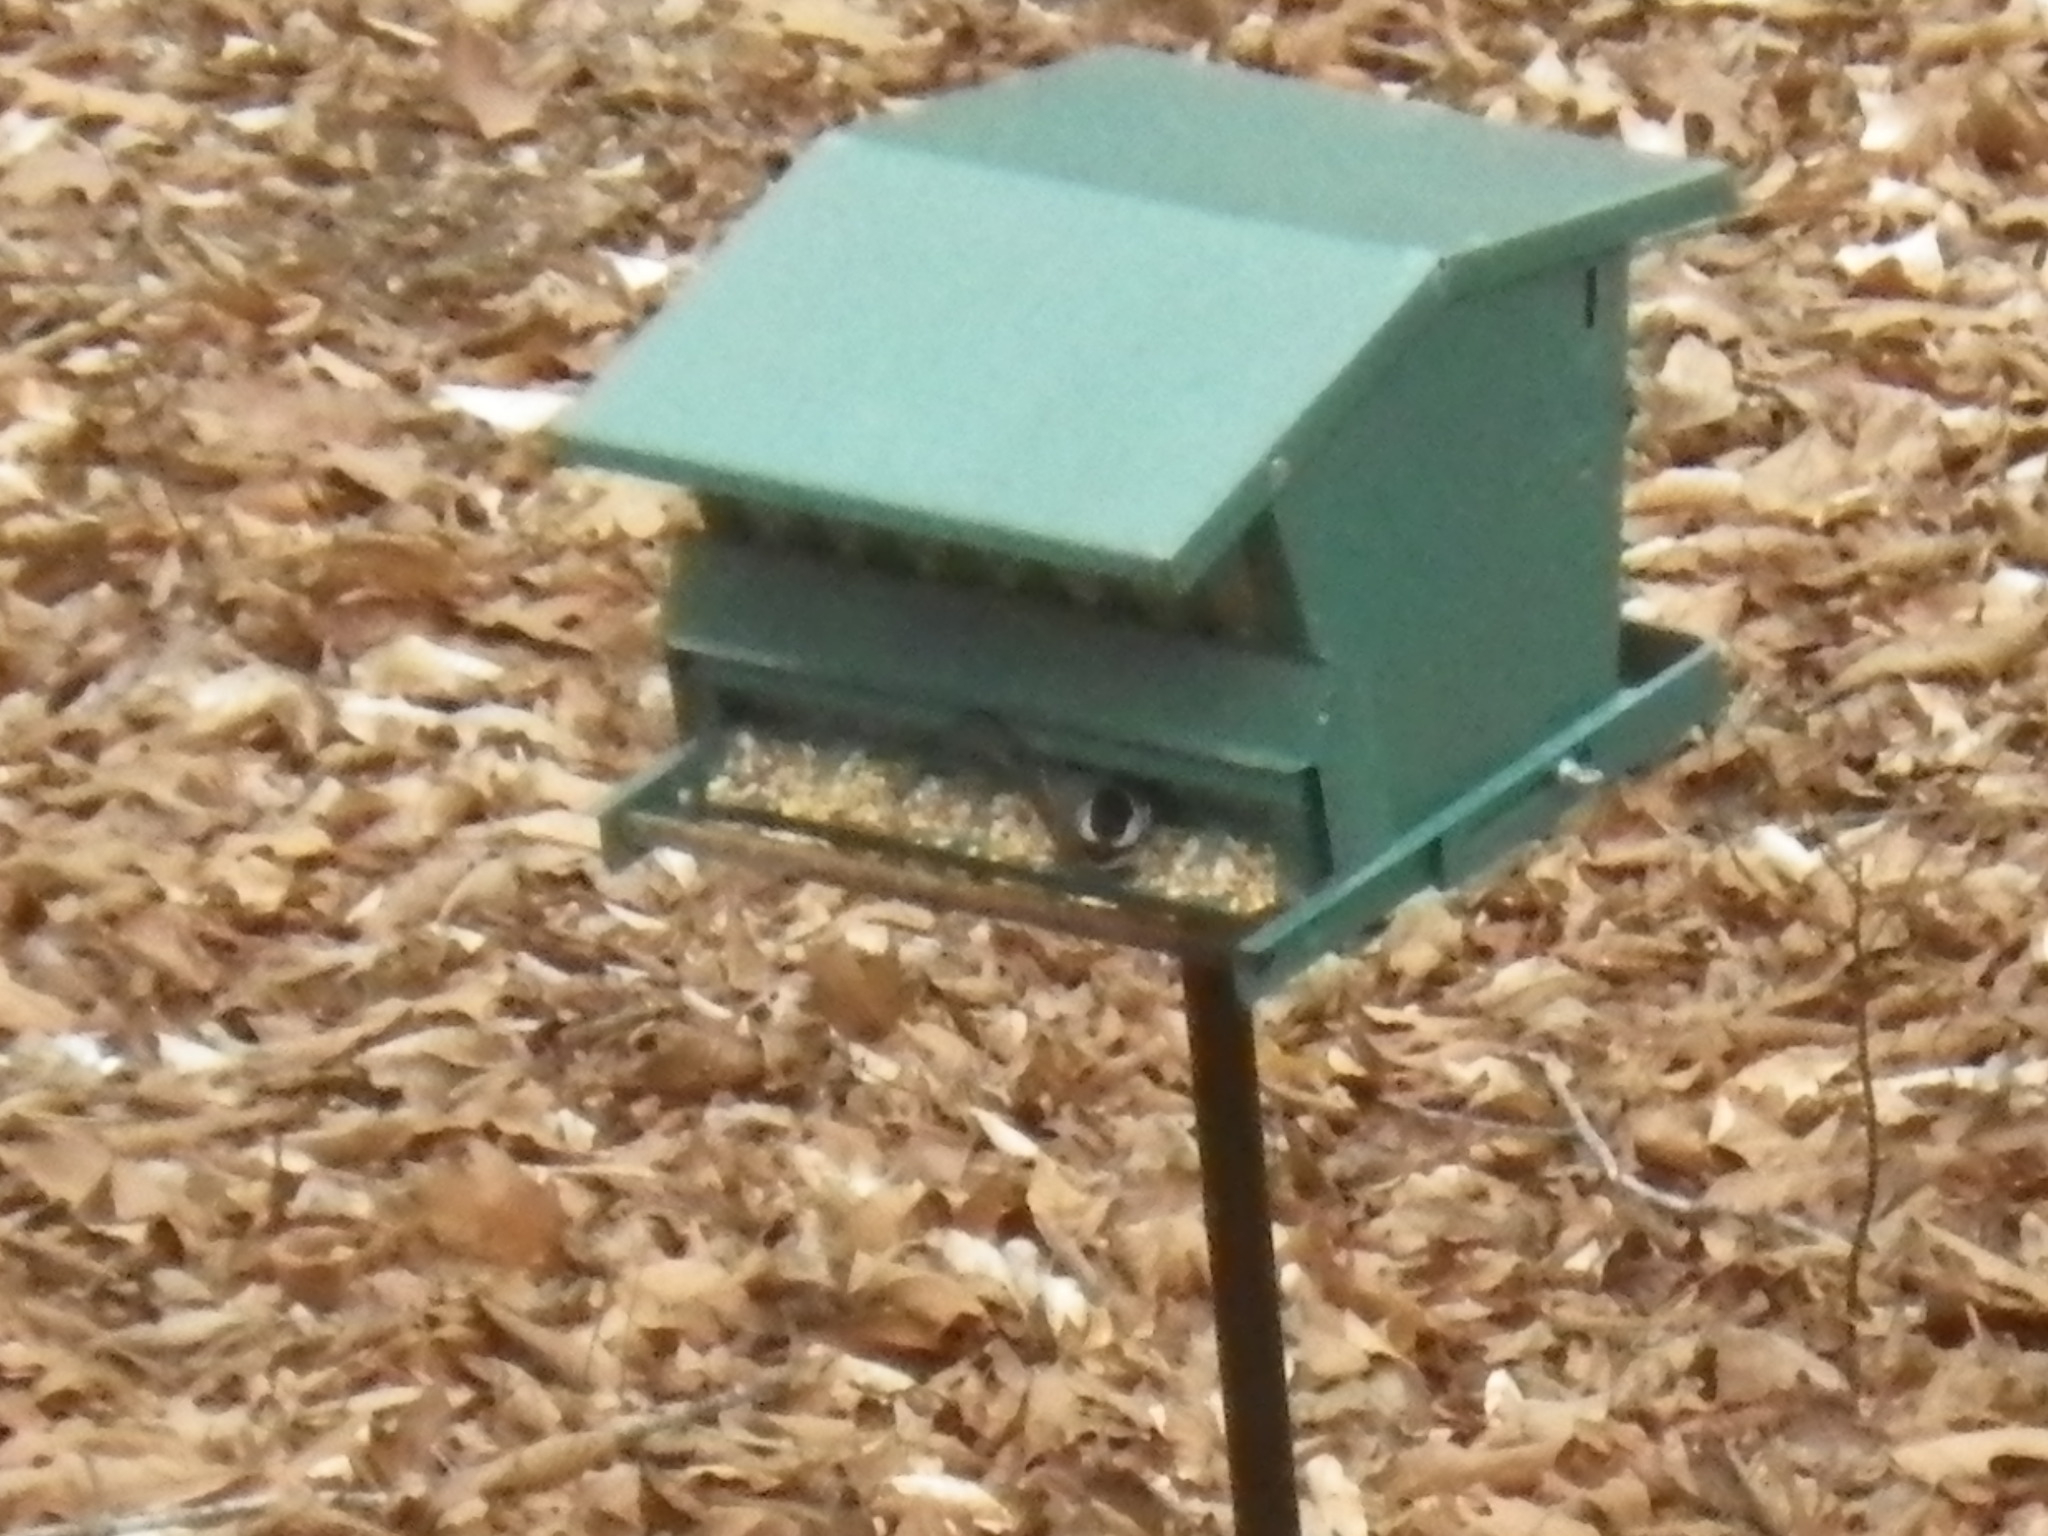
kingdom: Animalia
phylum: Chordata
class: Aves
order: Passeriformes
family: Paridae
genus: Poecile
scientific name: Poecile carolinensis
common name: Carolina chickadee
